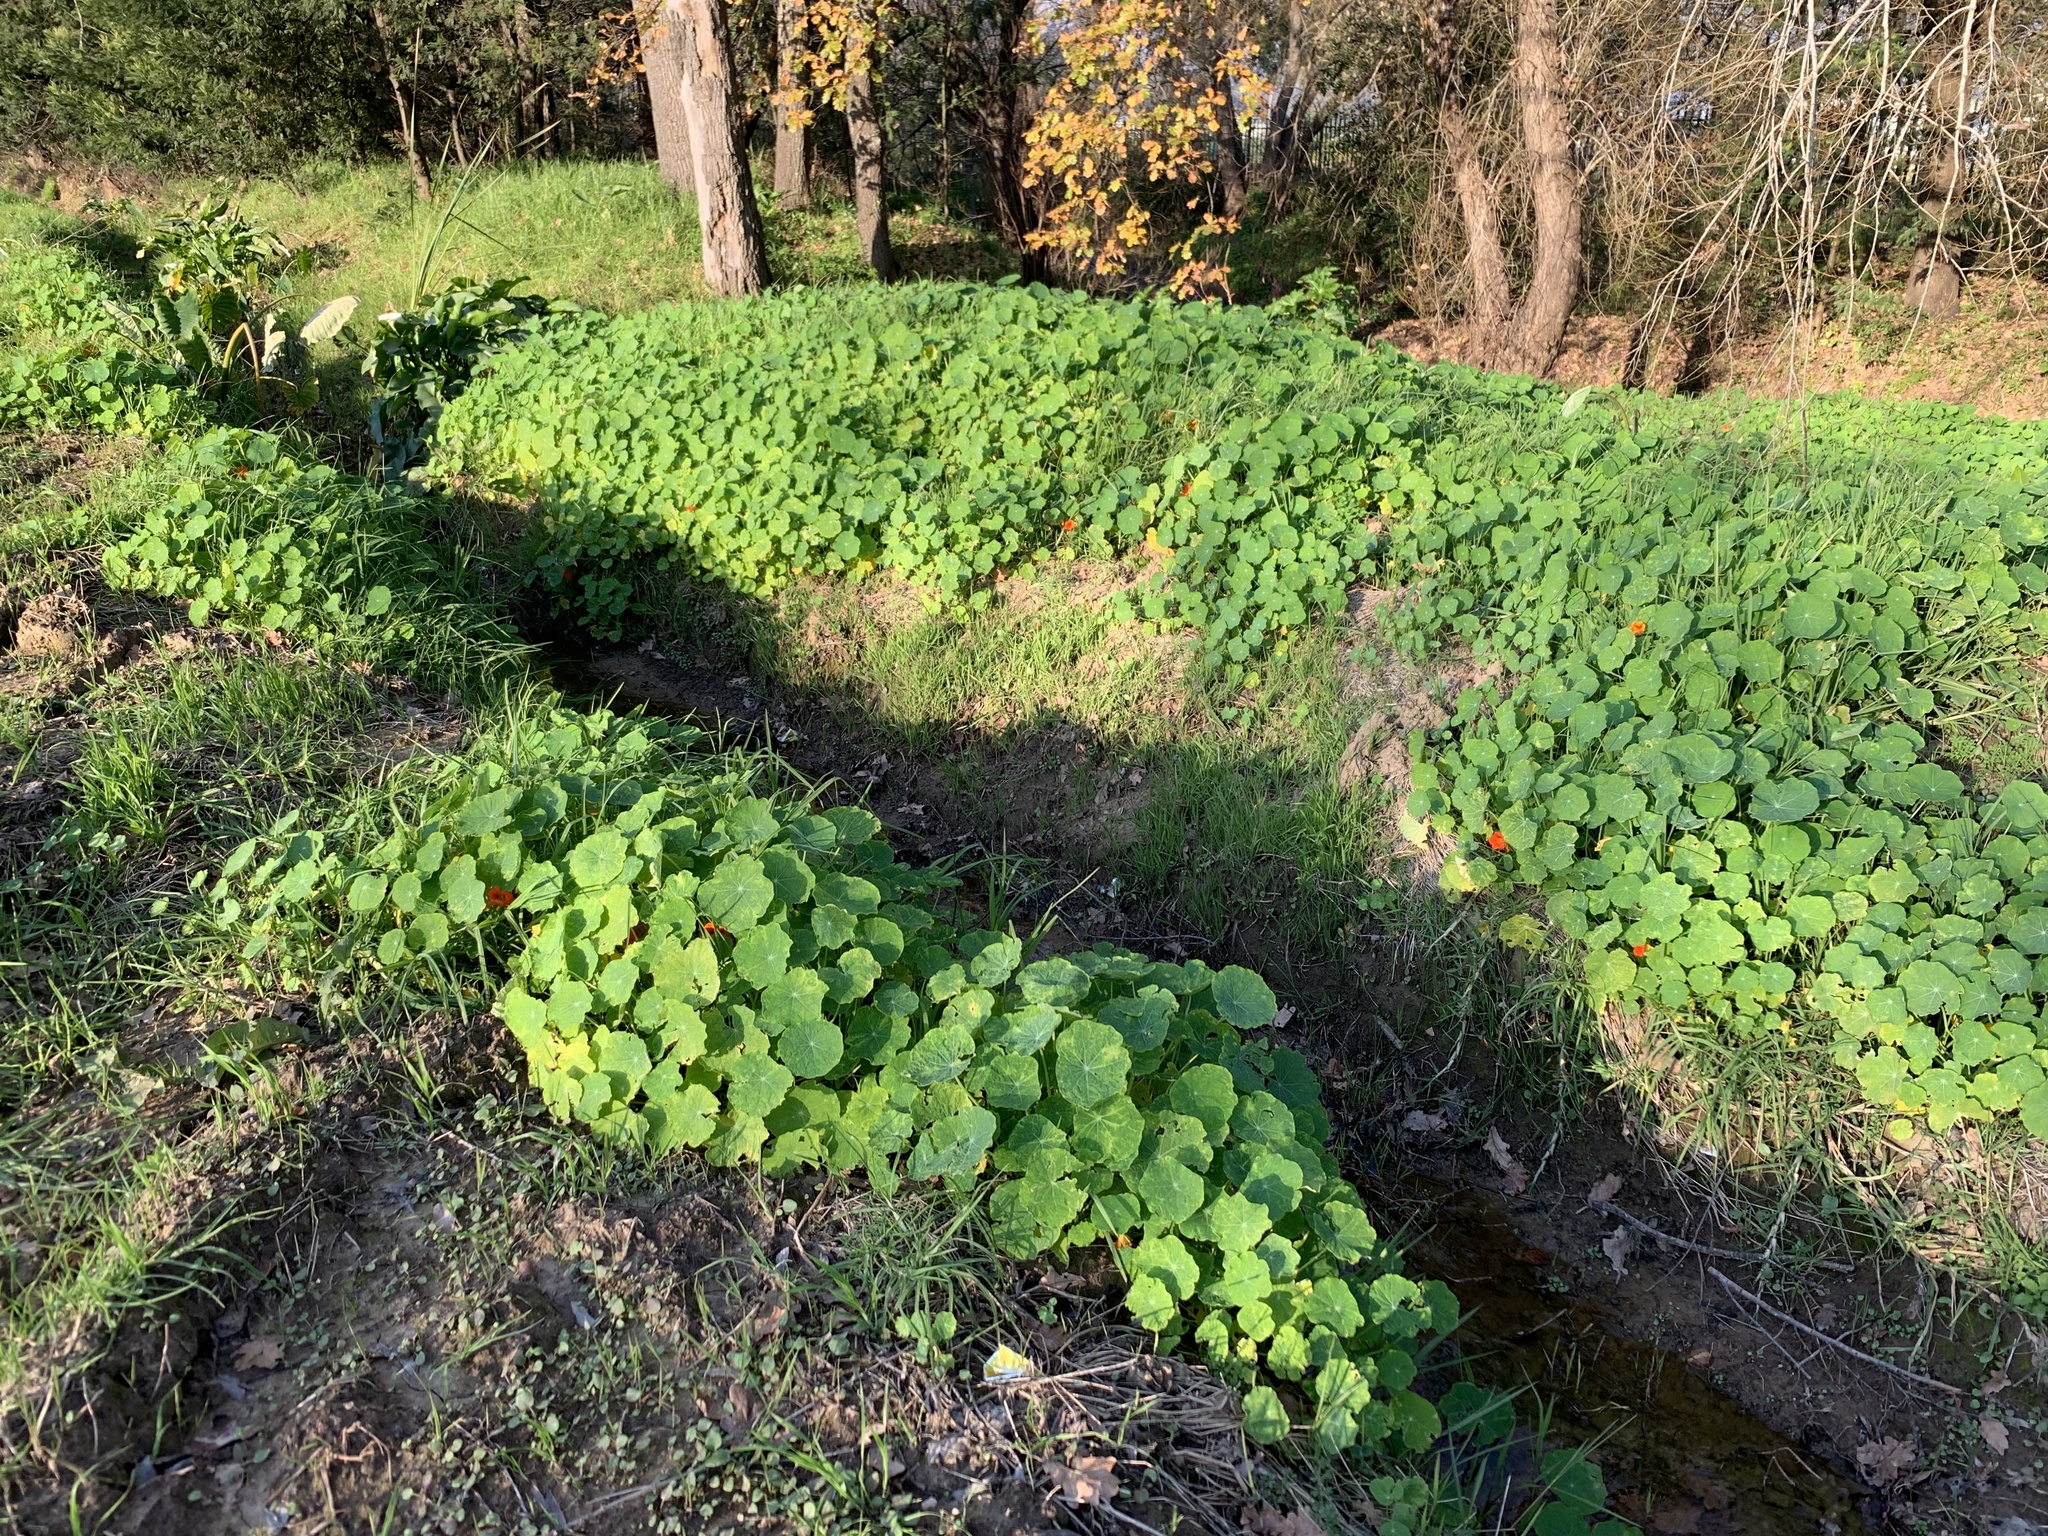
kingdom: Plantae
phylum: Tracheophyta
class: Magnoliopsida
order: Brassicales
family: Tropaeolaceae
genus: Tropaeolum
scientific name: Tropaeolum majus
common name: Nasturtium
